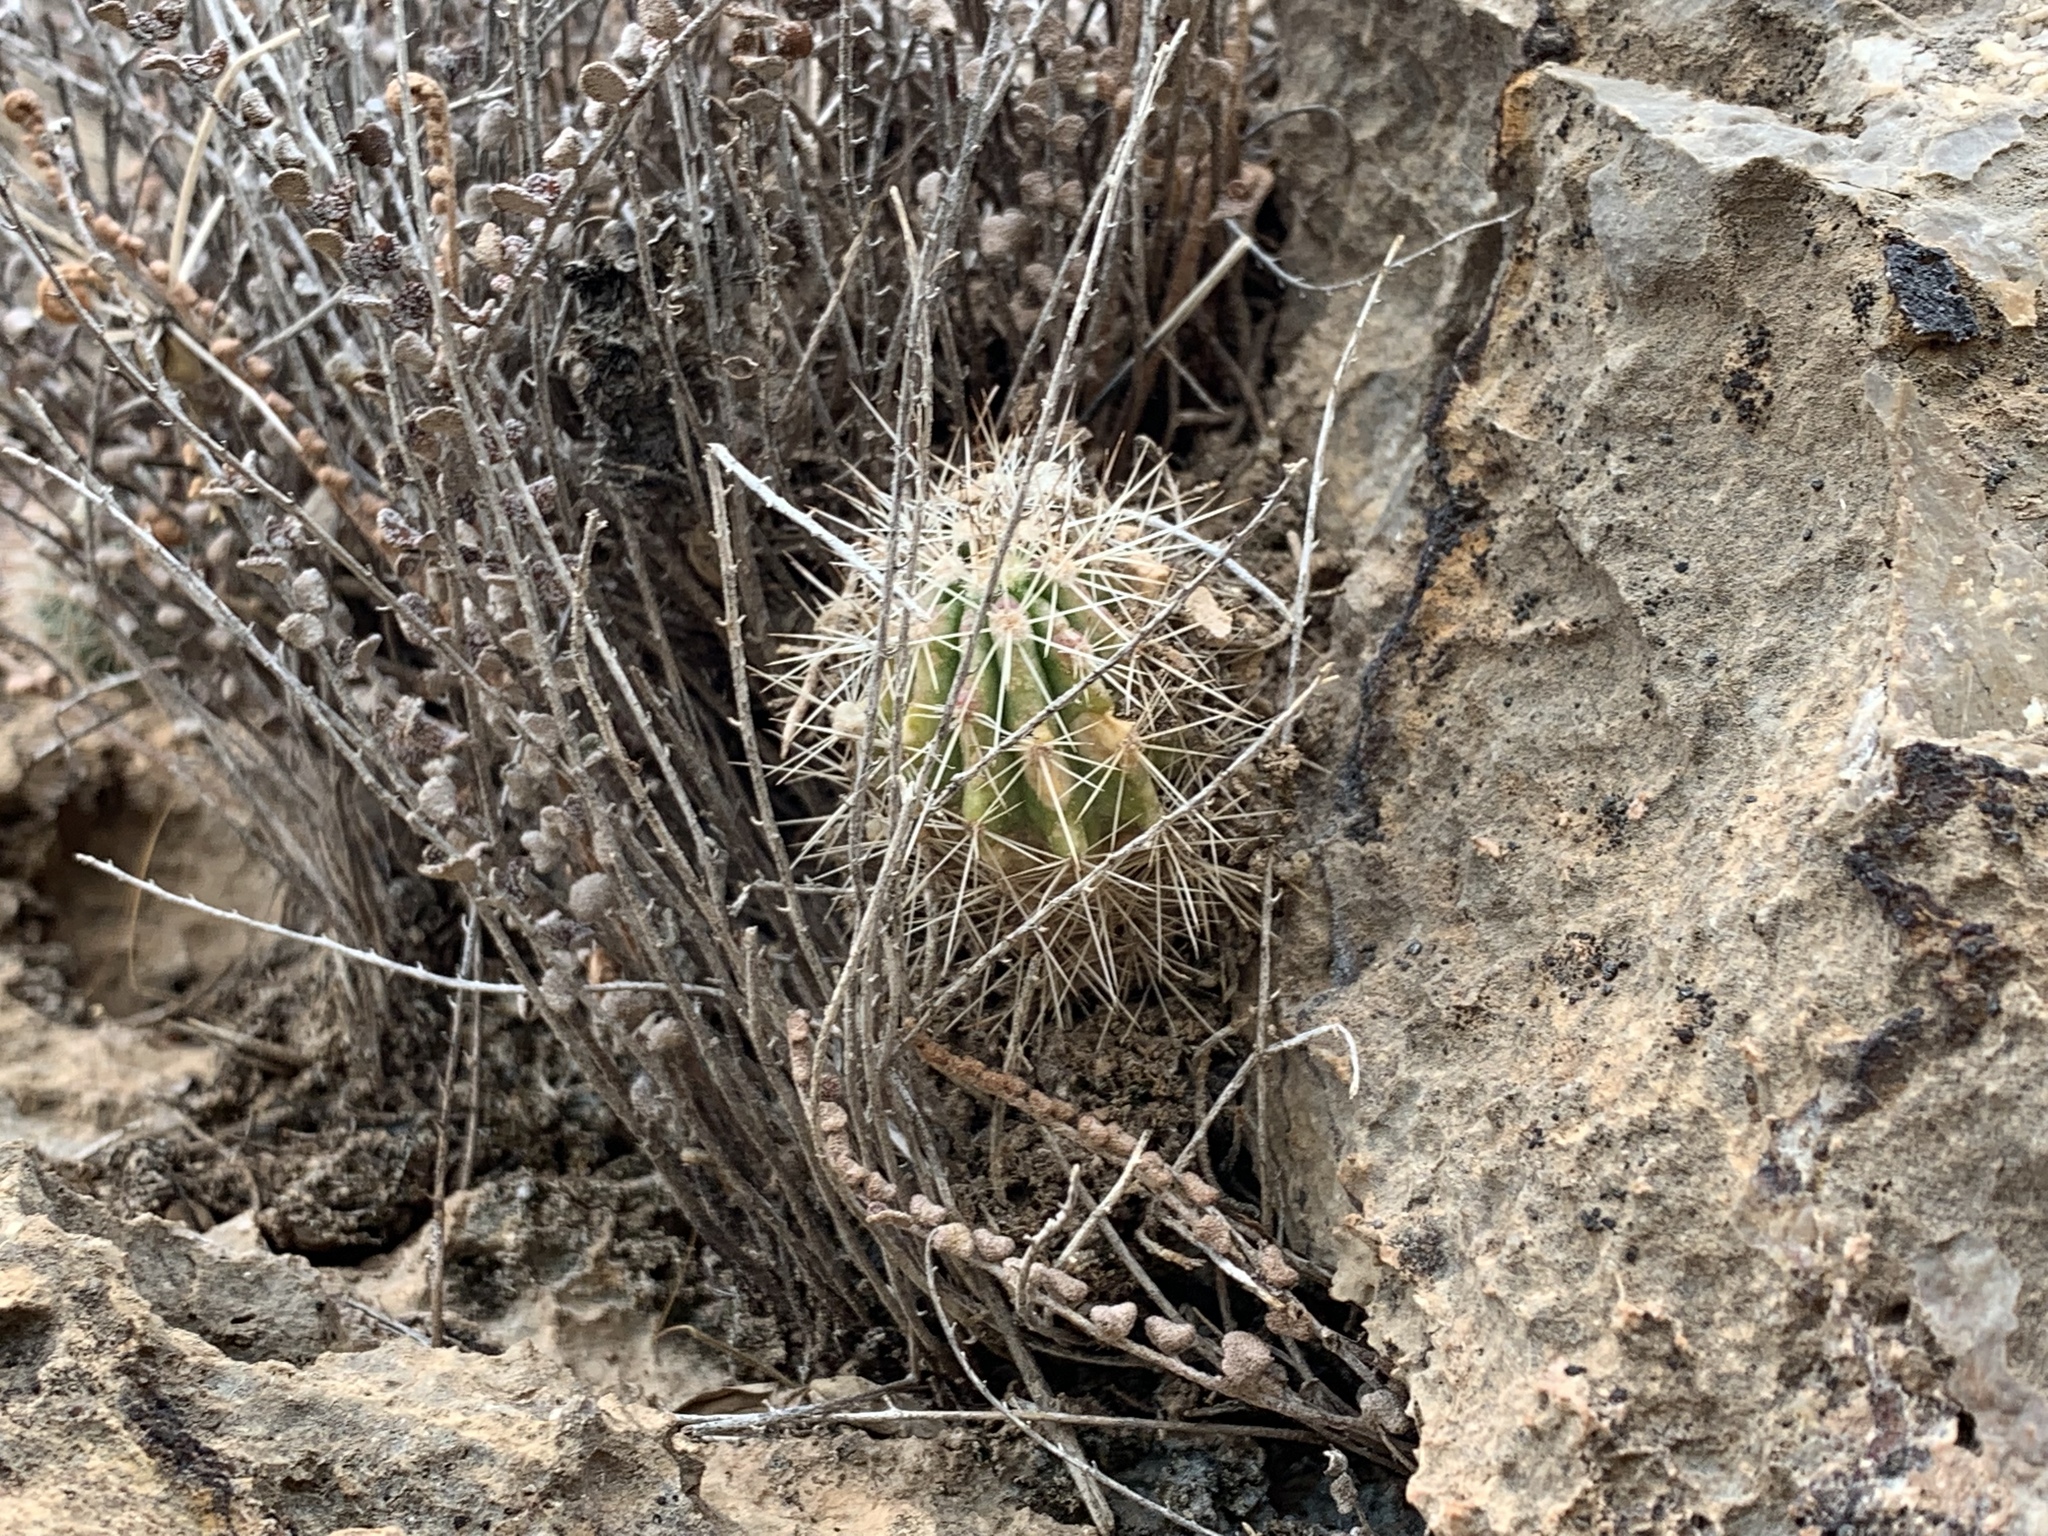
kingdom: Plantae
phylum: Tracheophyta
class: Magnoliopsida
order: Caryophyllales
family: Cactaceae
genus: Echinocereus
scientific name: Echinocereus stramineus
